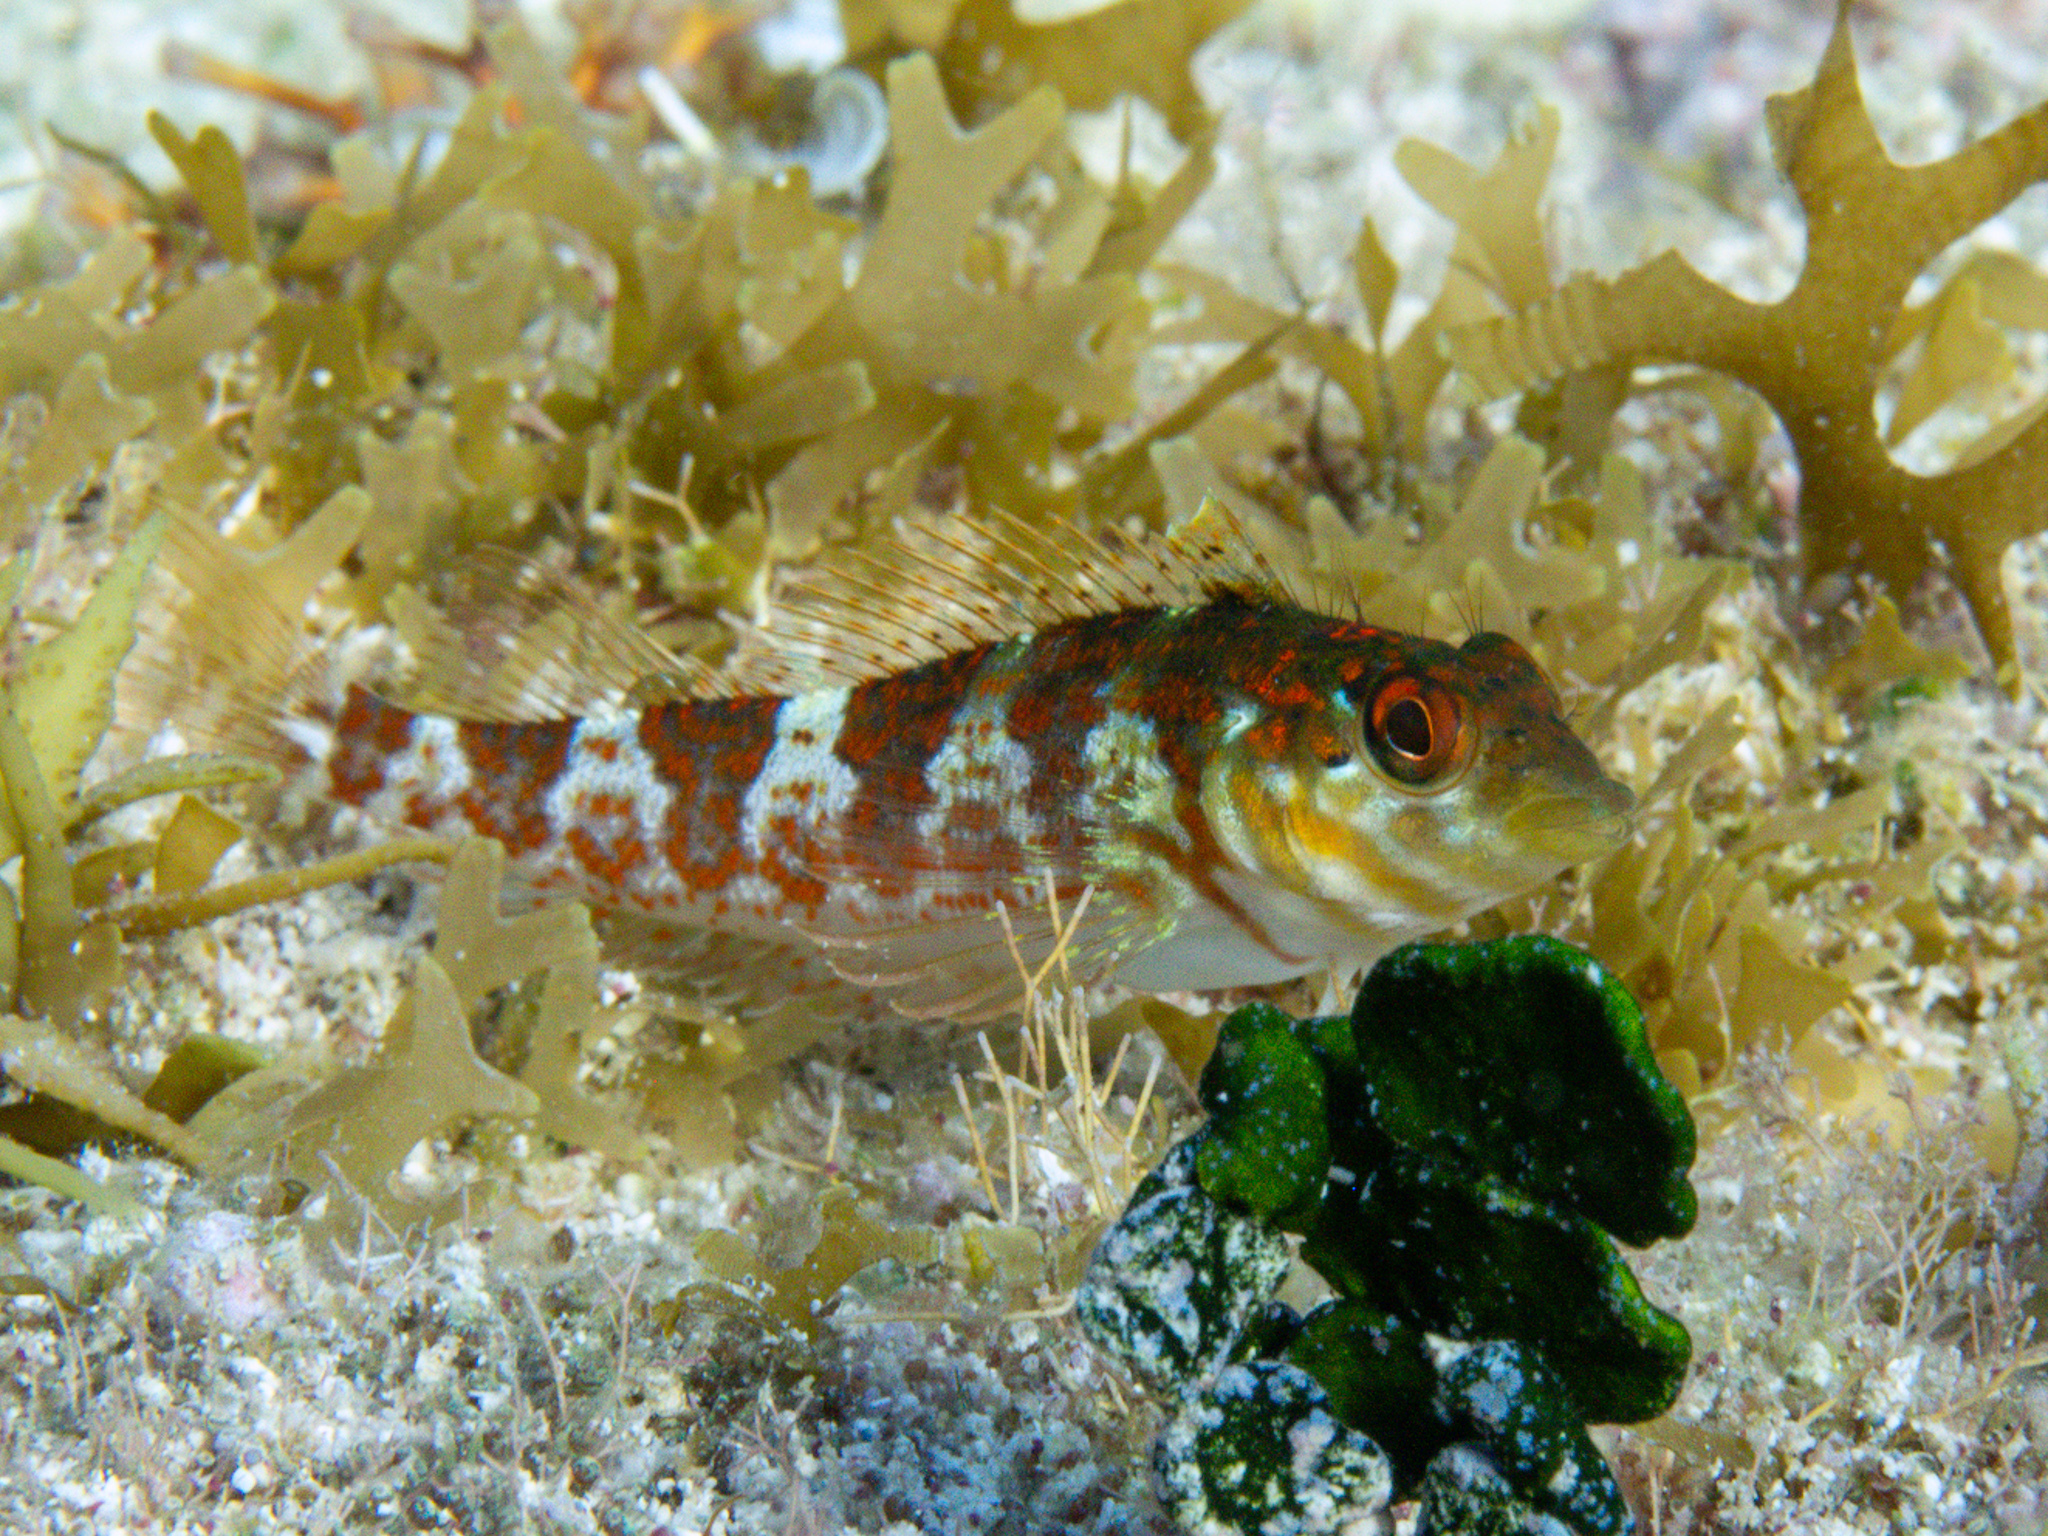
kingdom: Animalia
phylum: Chordata
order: Perciformes
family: Labrisomidae
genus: Malacoctenus
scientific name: Malacoctenus triangulatus
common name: Saddled blenny
